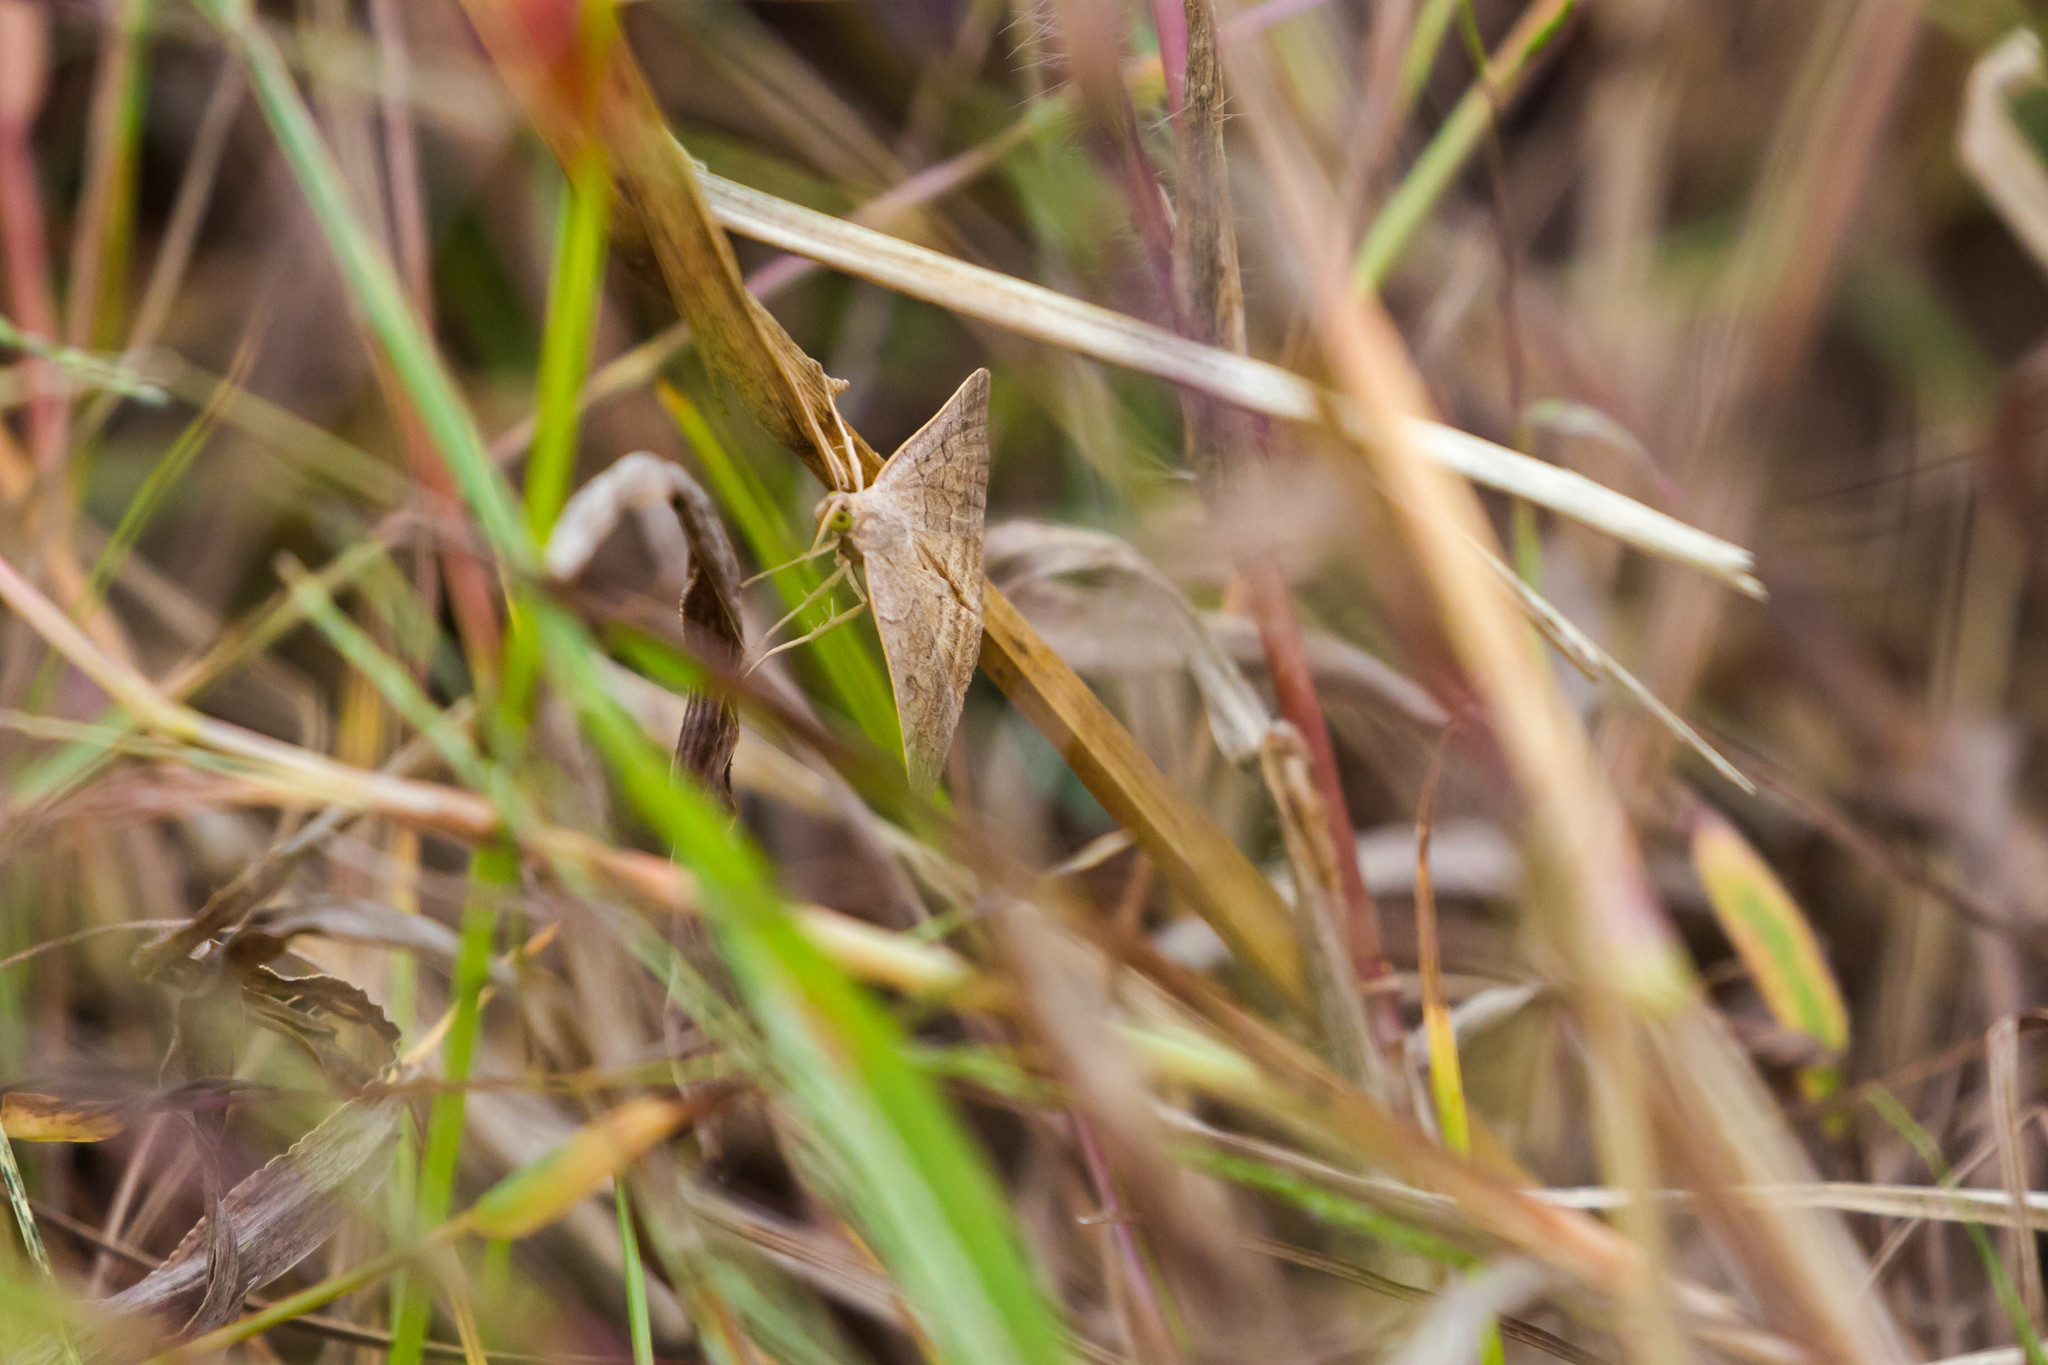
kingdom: Animalia
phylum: Arthropoda
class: Insecta
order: Lepidoptera
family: Erebidae
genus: Caenurgia
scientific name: Caenurgia chloropha
